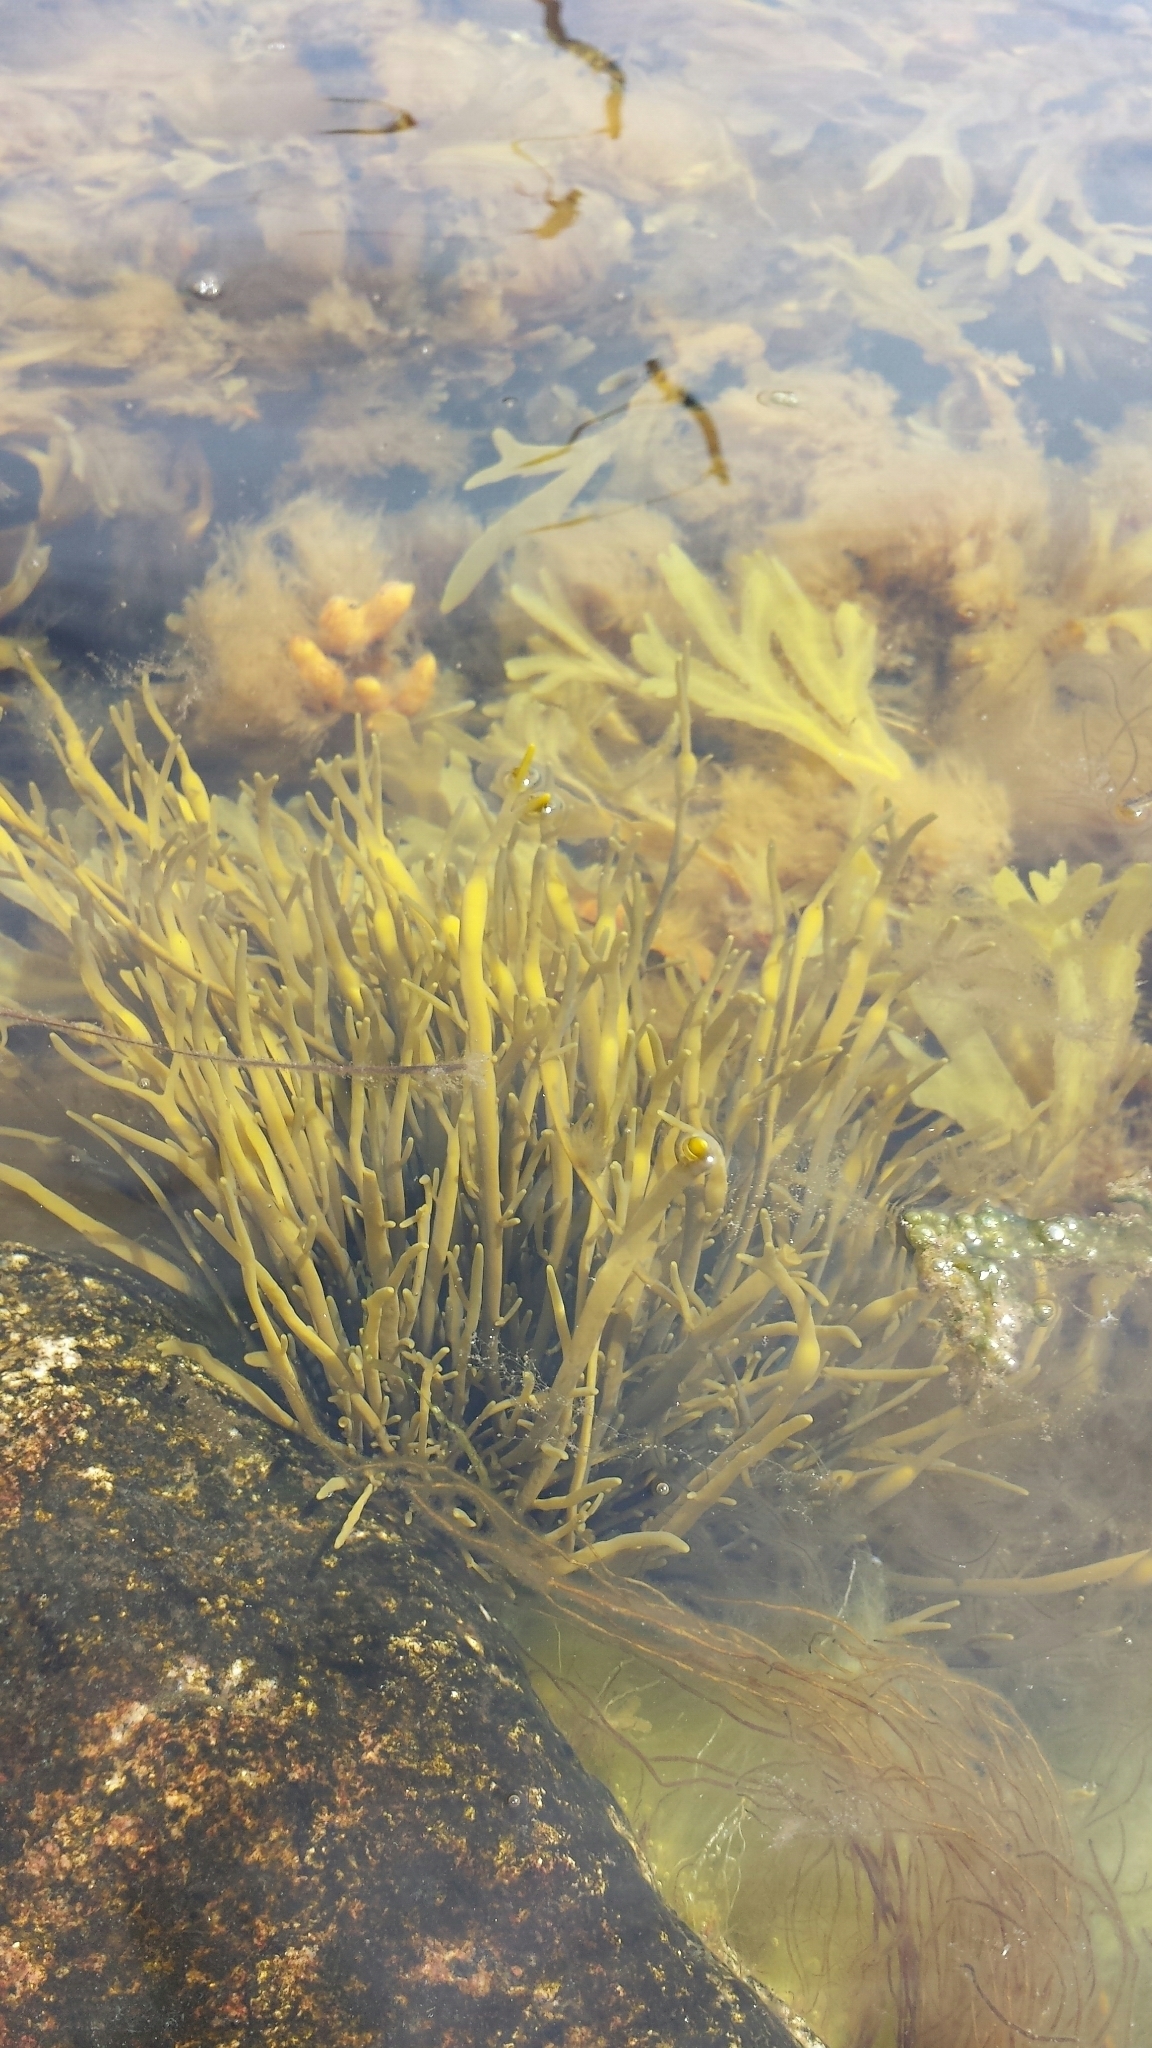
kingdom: Chromista
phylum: Ochrophyta
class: Phaeophyceae
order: Fucales
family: Fucaceae
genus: Ascophyllum
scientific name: Ascophyllum nodosum
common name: Knotted wrack
